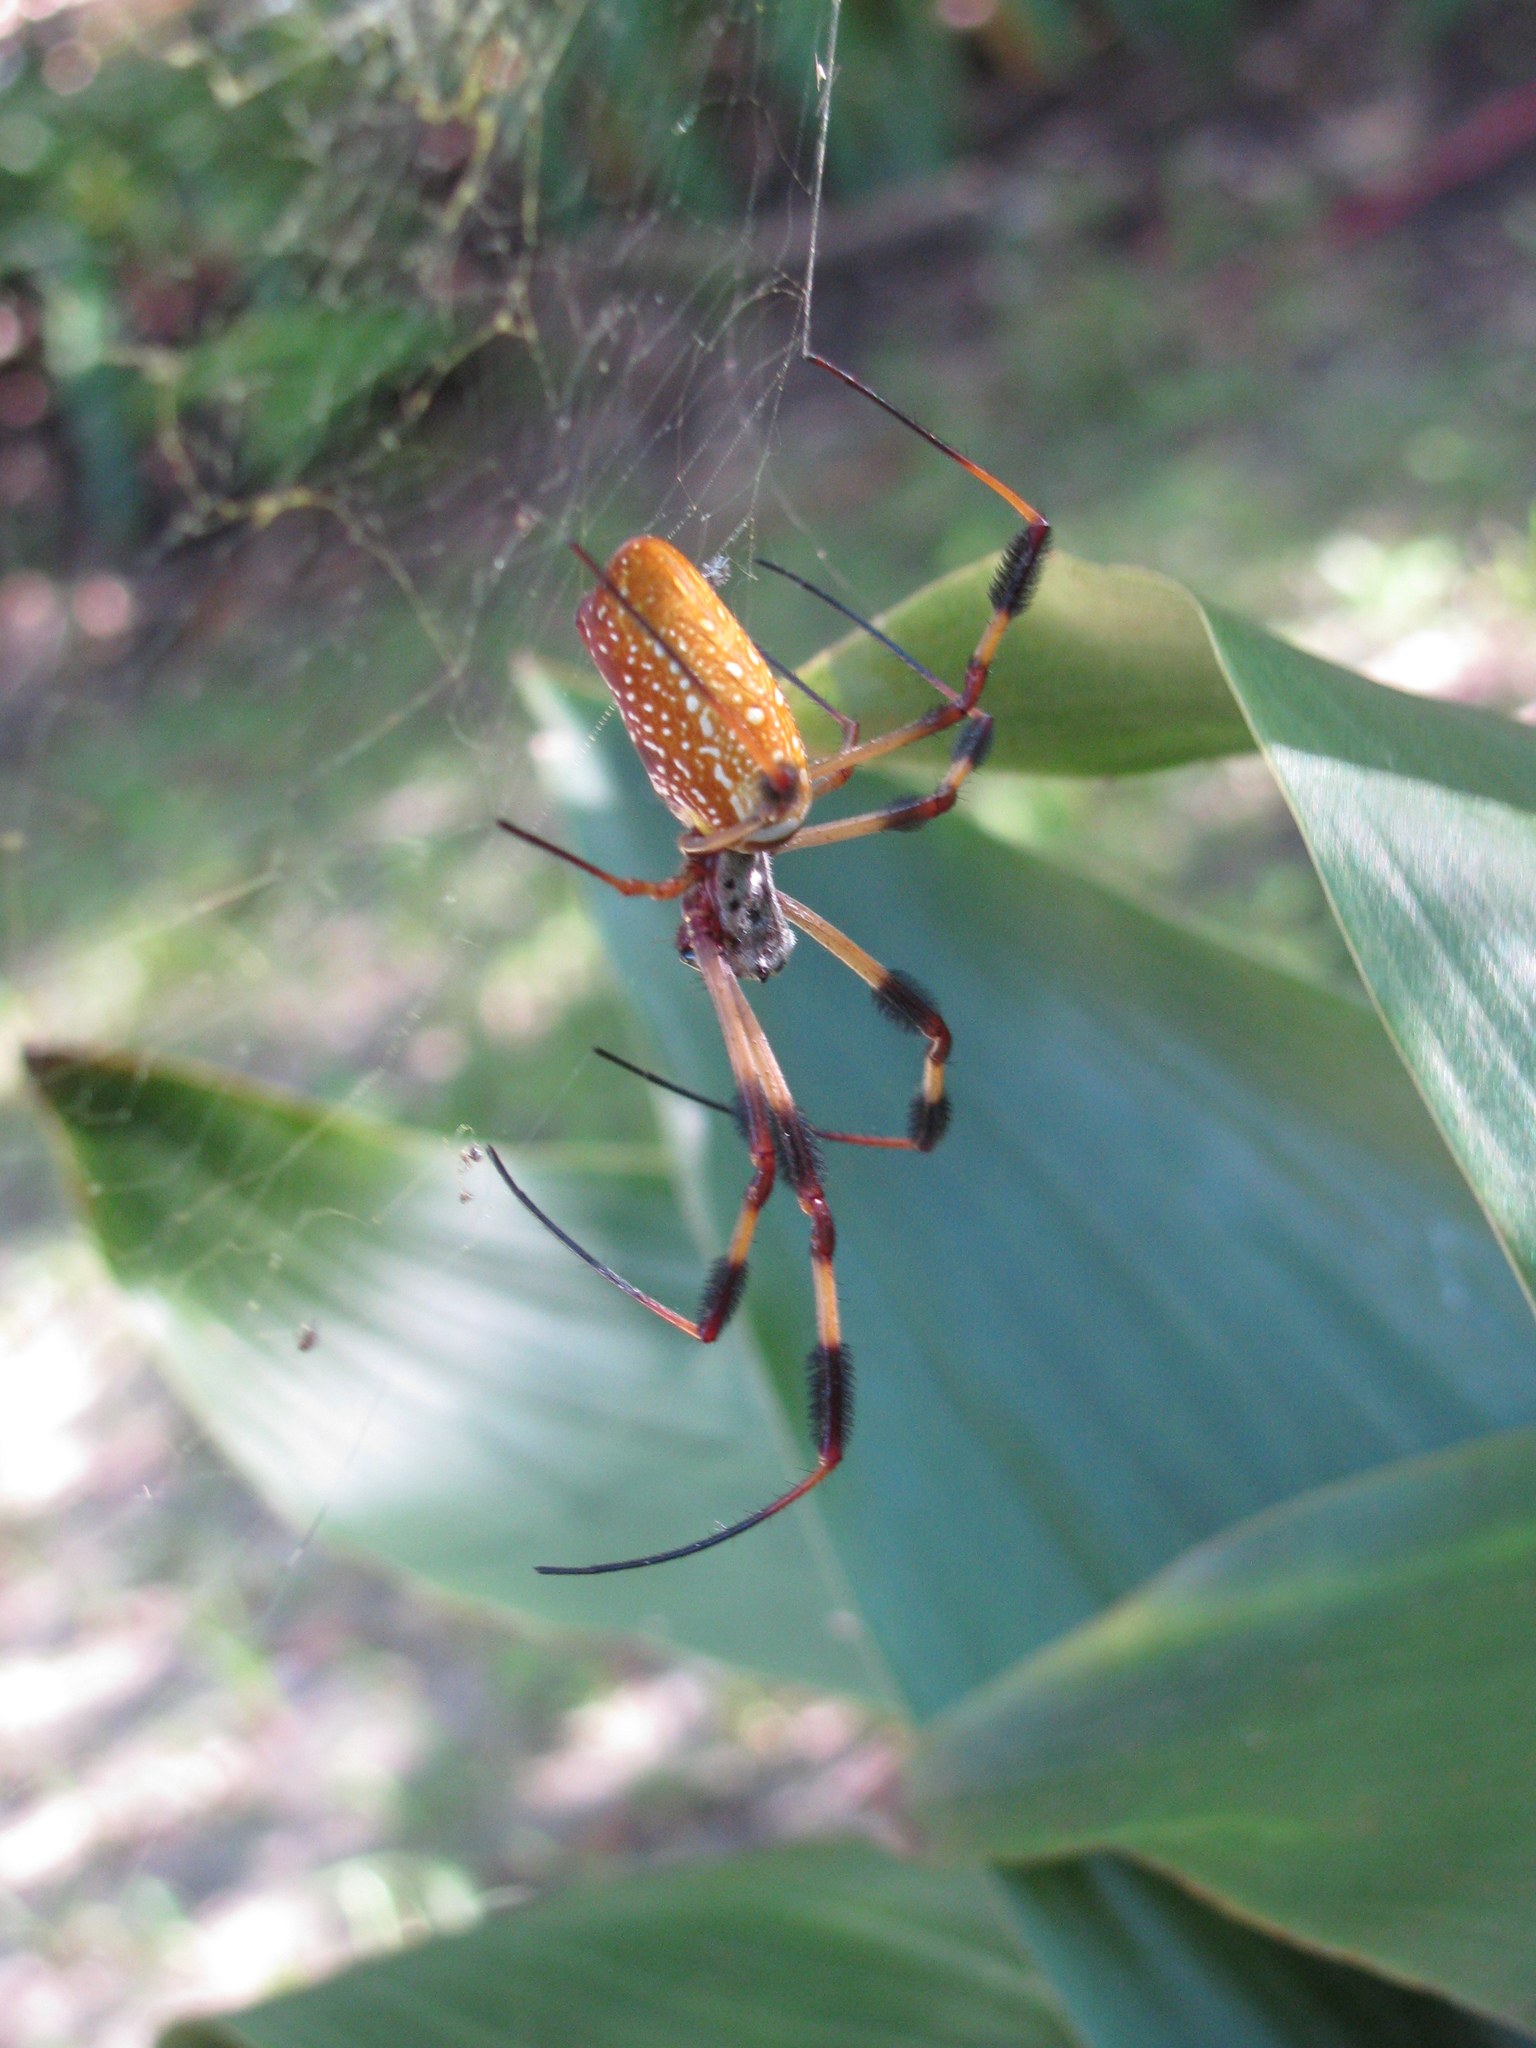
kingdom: Animalia
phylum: Arthropoda
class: Arachnida
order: Araneae
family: Araneidae
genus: Trichonephila
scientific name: Trichonephila clavipes
